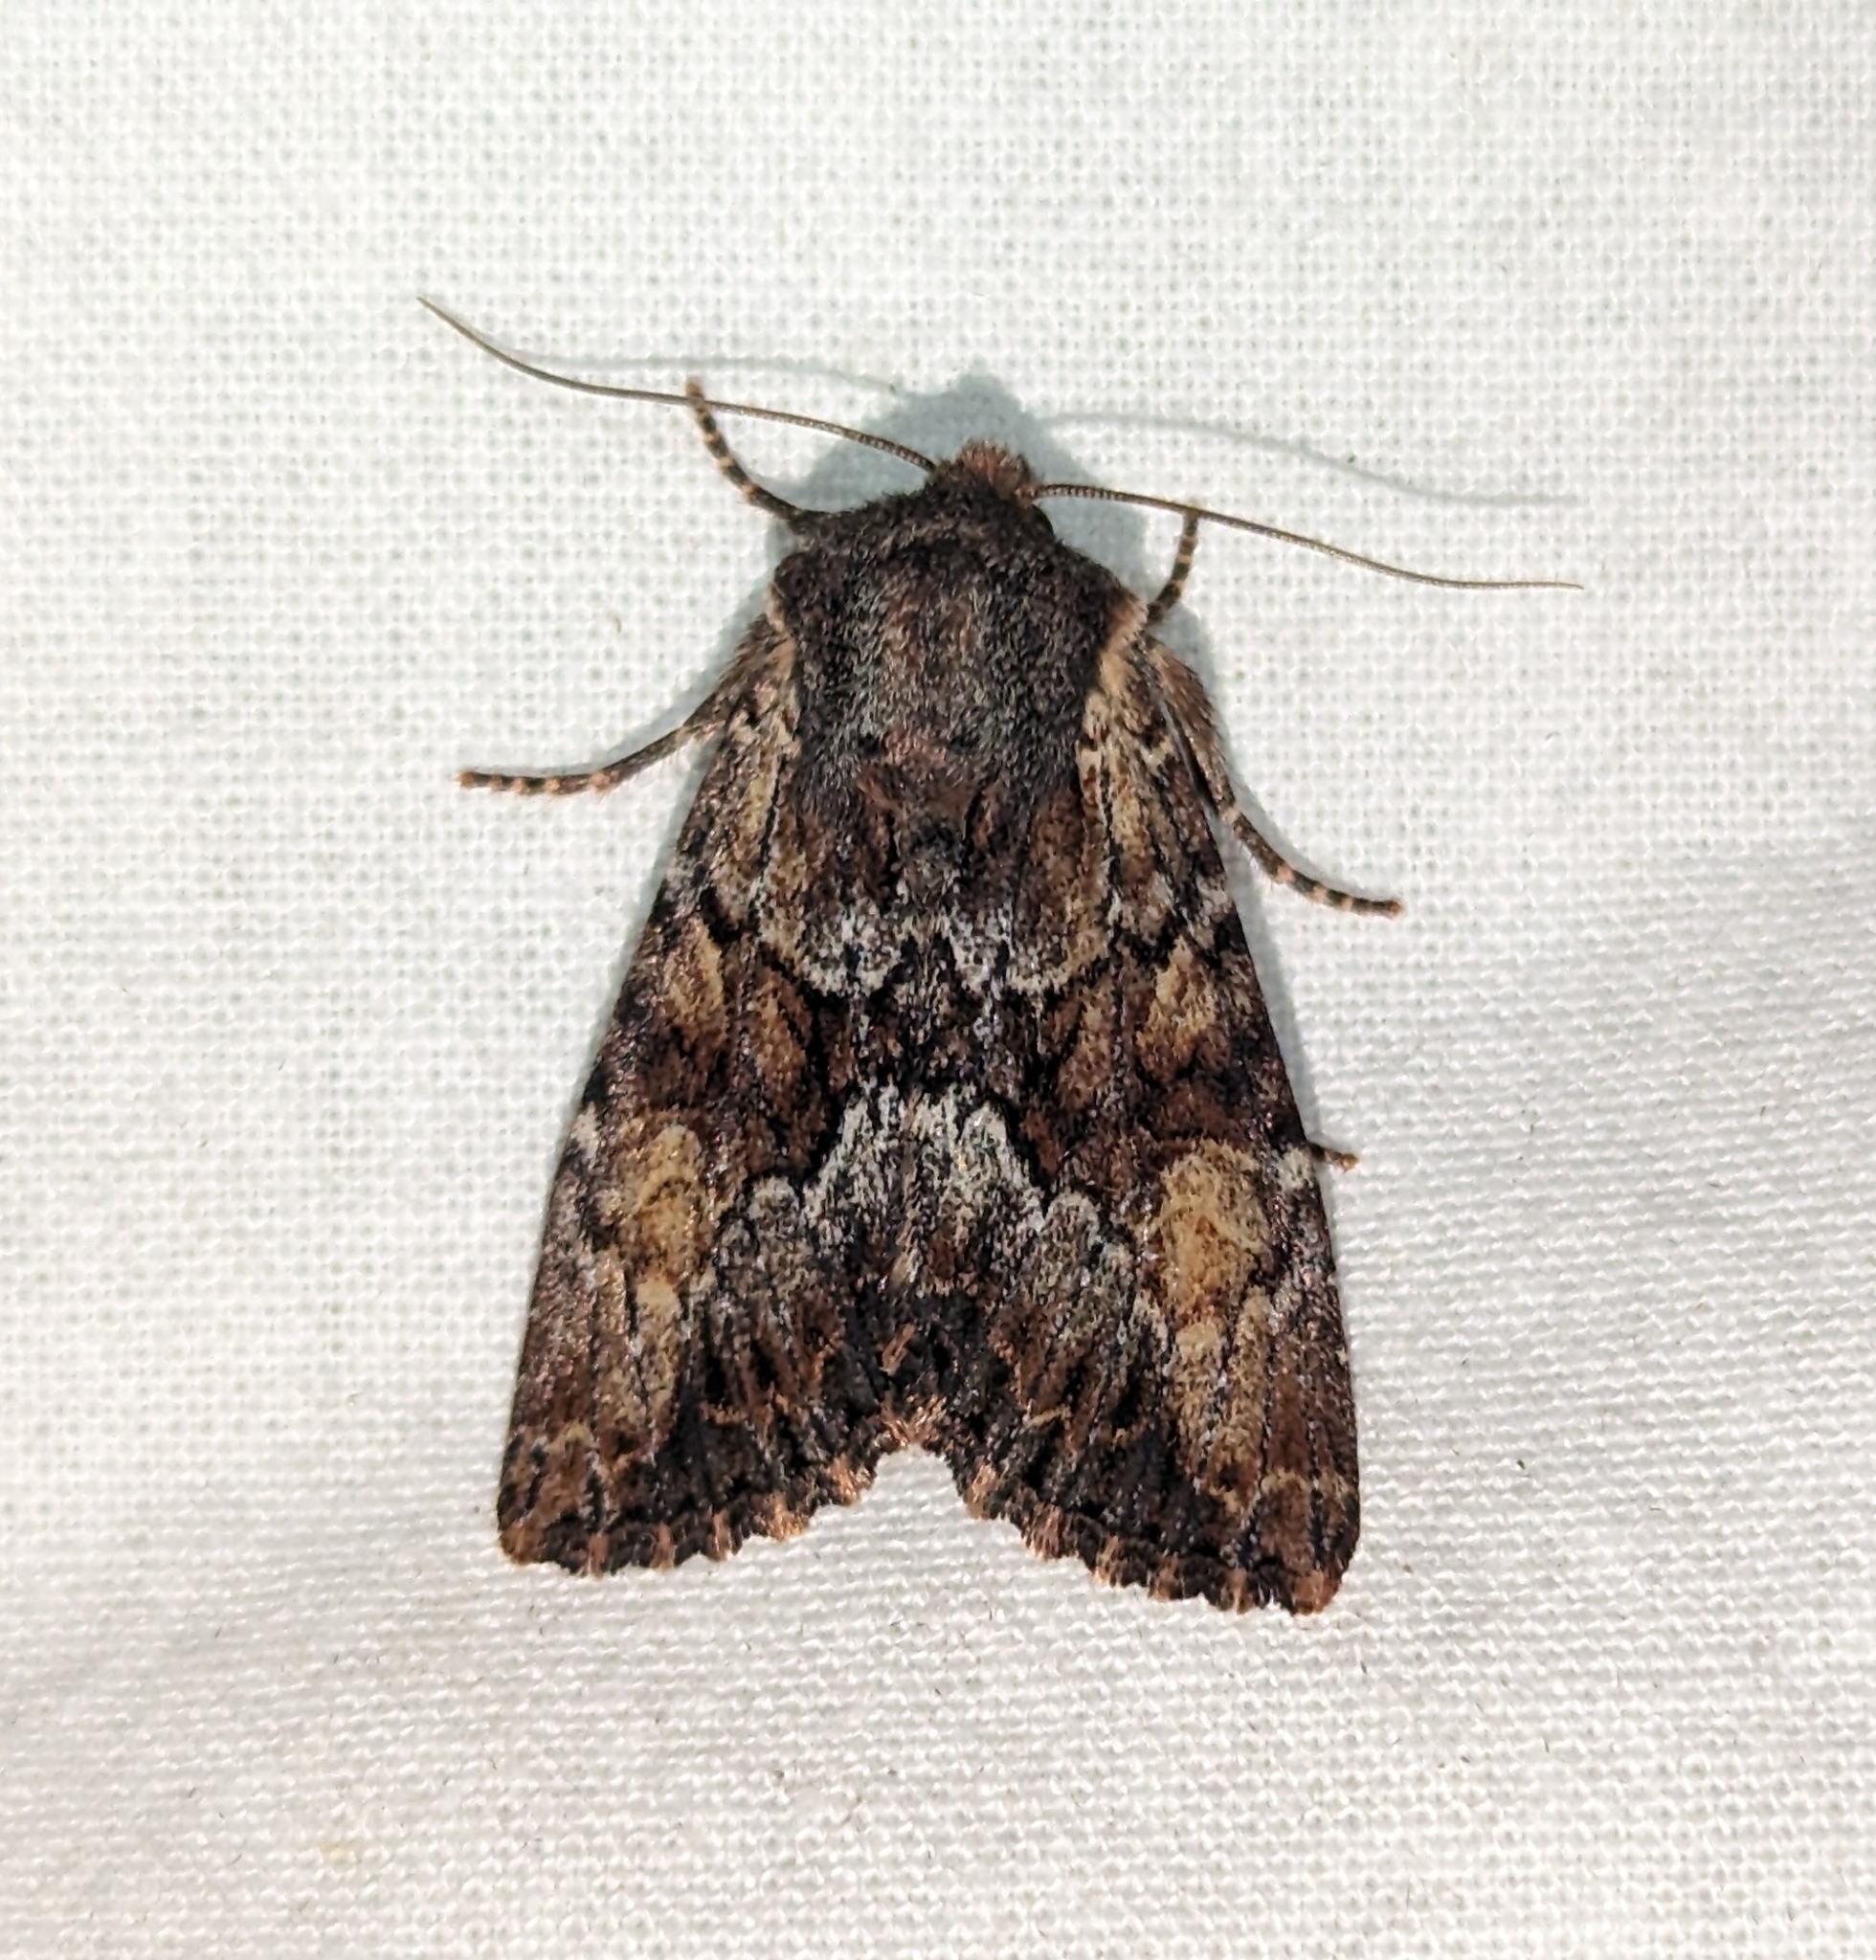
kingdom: Animalia
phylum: Arthropoda
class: Insecta
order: Lepidoptera
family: Noctuidae
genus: Apamea
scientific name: Apamea sora
